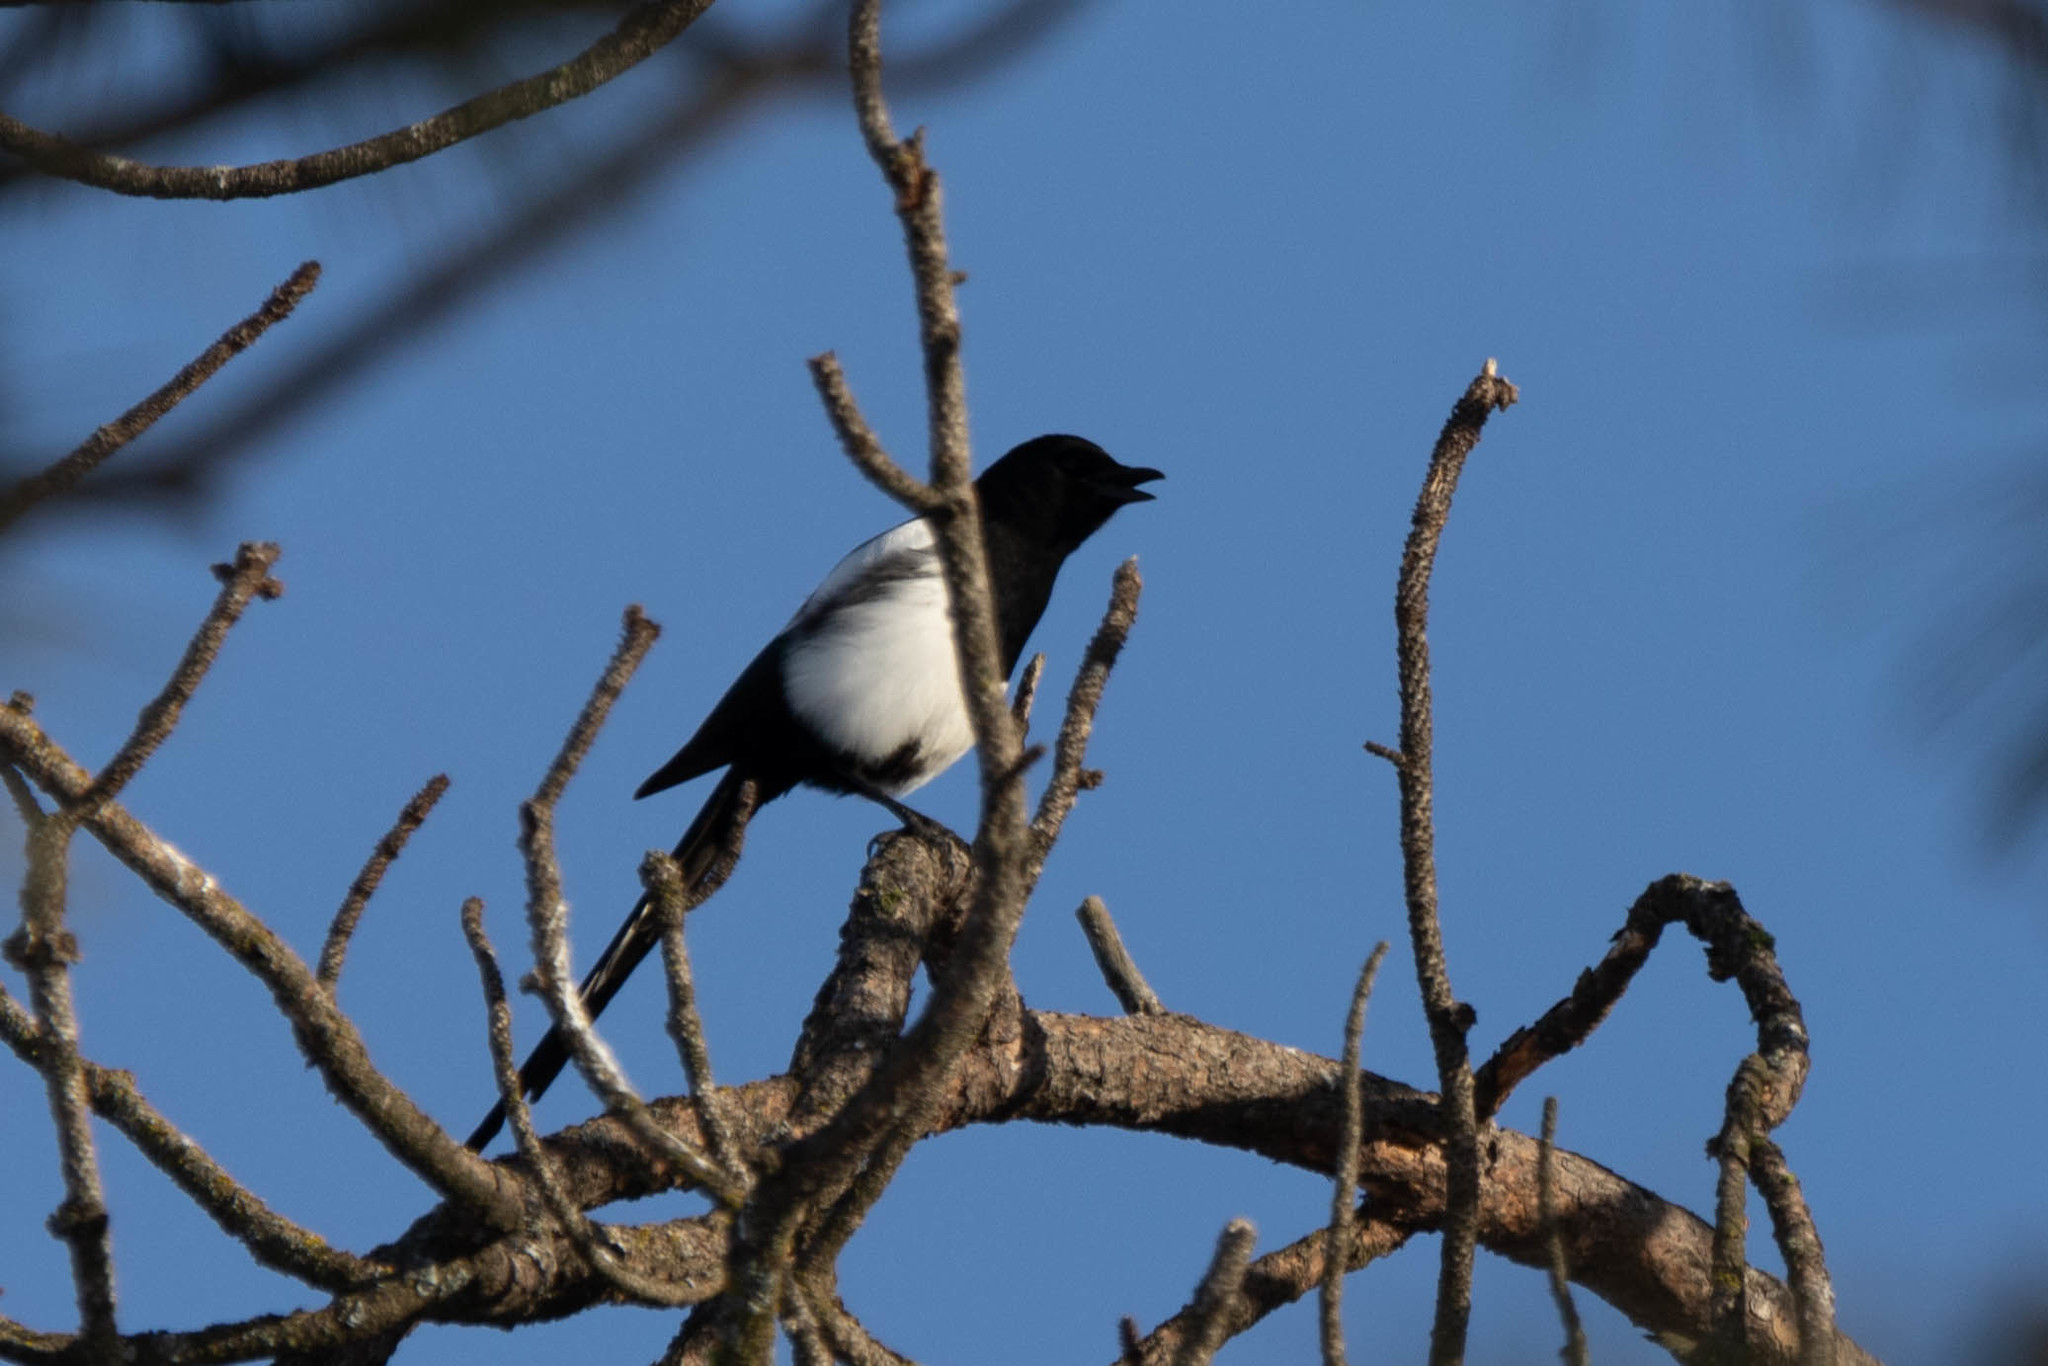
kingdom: Animalia
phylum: Chordata
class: Aves
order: Passeriformes
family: Corvidae
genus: Pica
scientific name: Pica hudsonia
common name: Black-billed magpie
